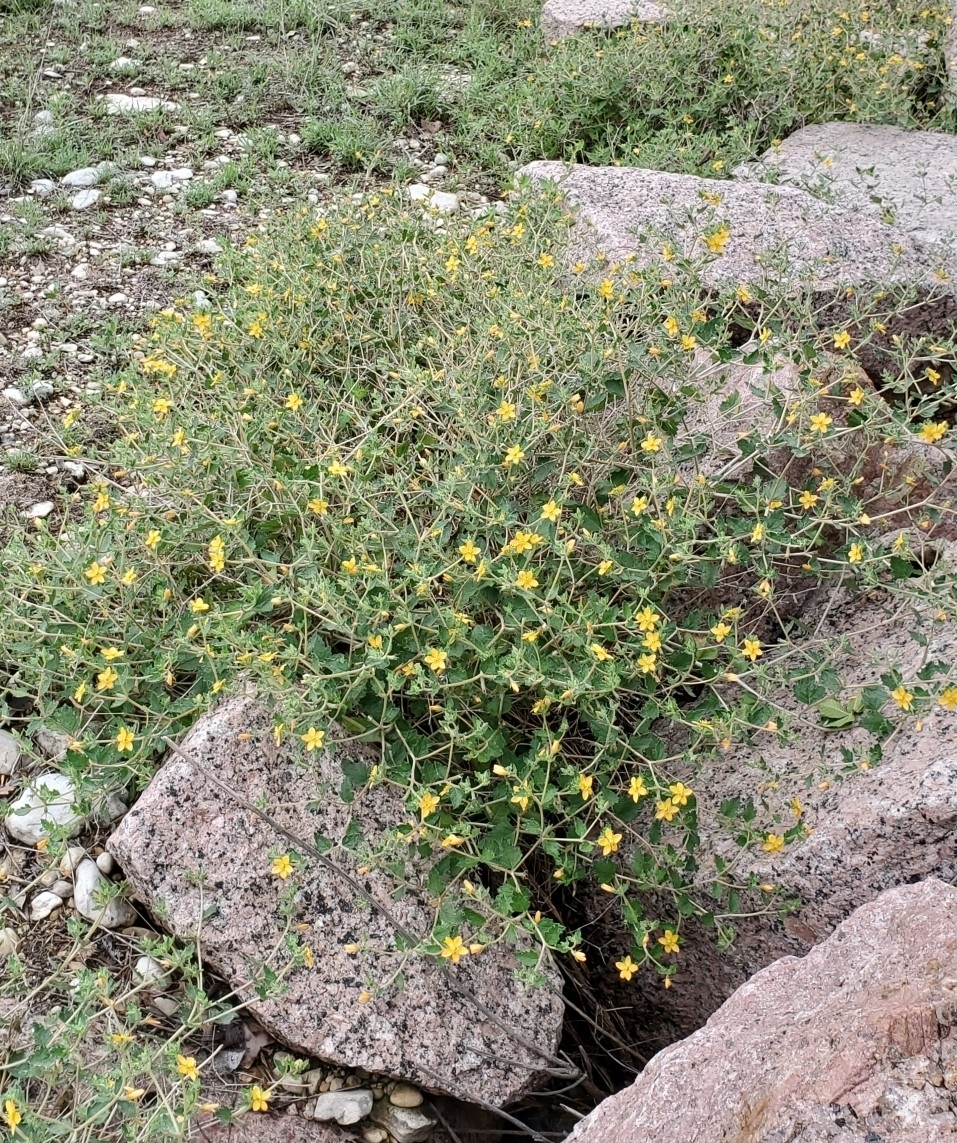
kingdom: Plantae
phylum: Tracheophyta
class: Magnoliopsida
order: Cornales
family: Loasaceae
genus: Mentzelia
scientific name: Mentzelia oligosperma
